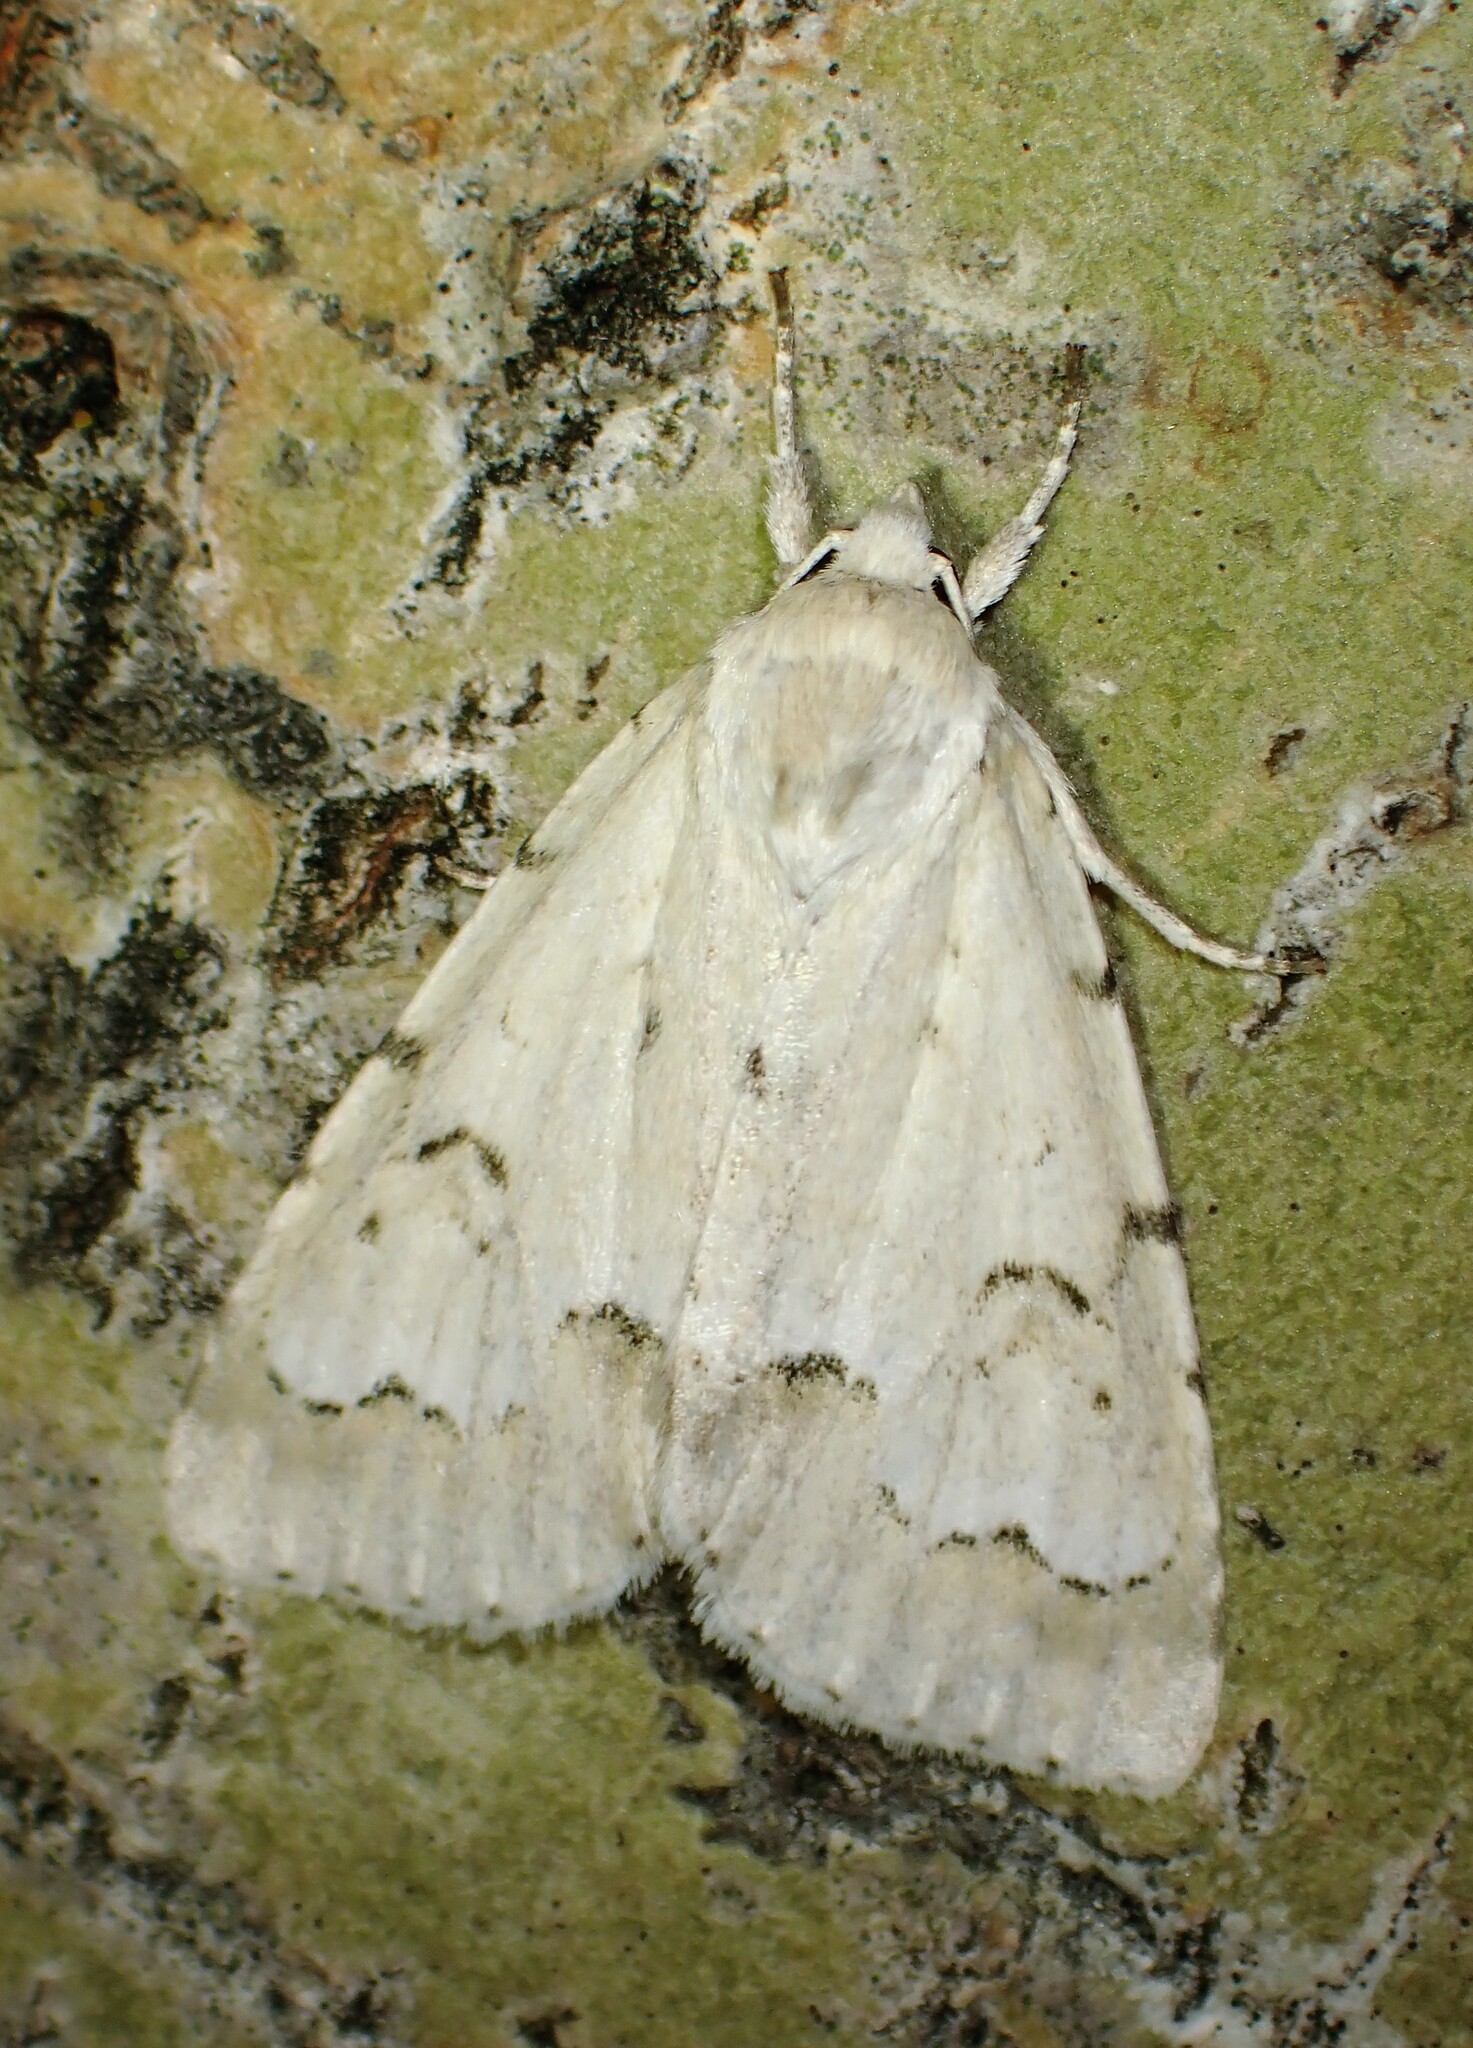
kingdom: Animalia
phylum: Arthropoda
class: Insecta
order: Lepidoptera
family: Noctuidae
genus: Acronicta
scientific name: Acronicta innotata
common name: Unmarked dagger
